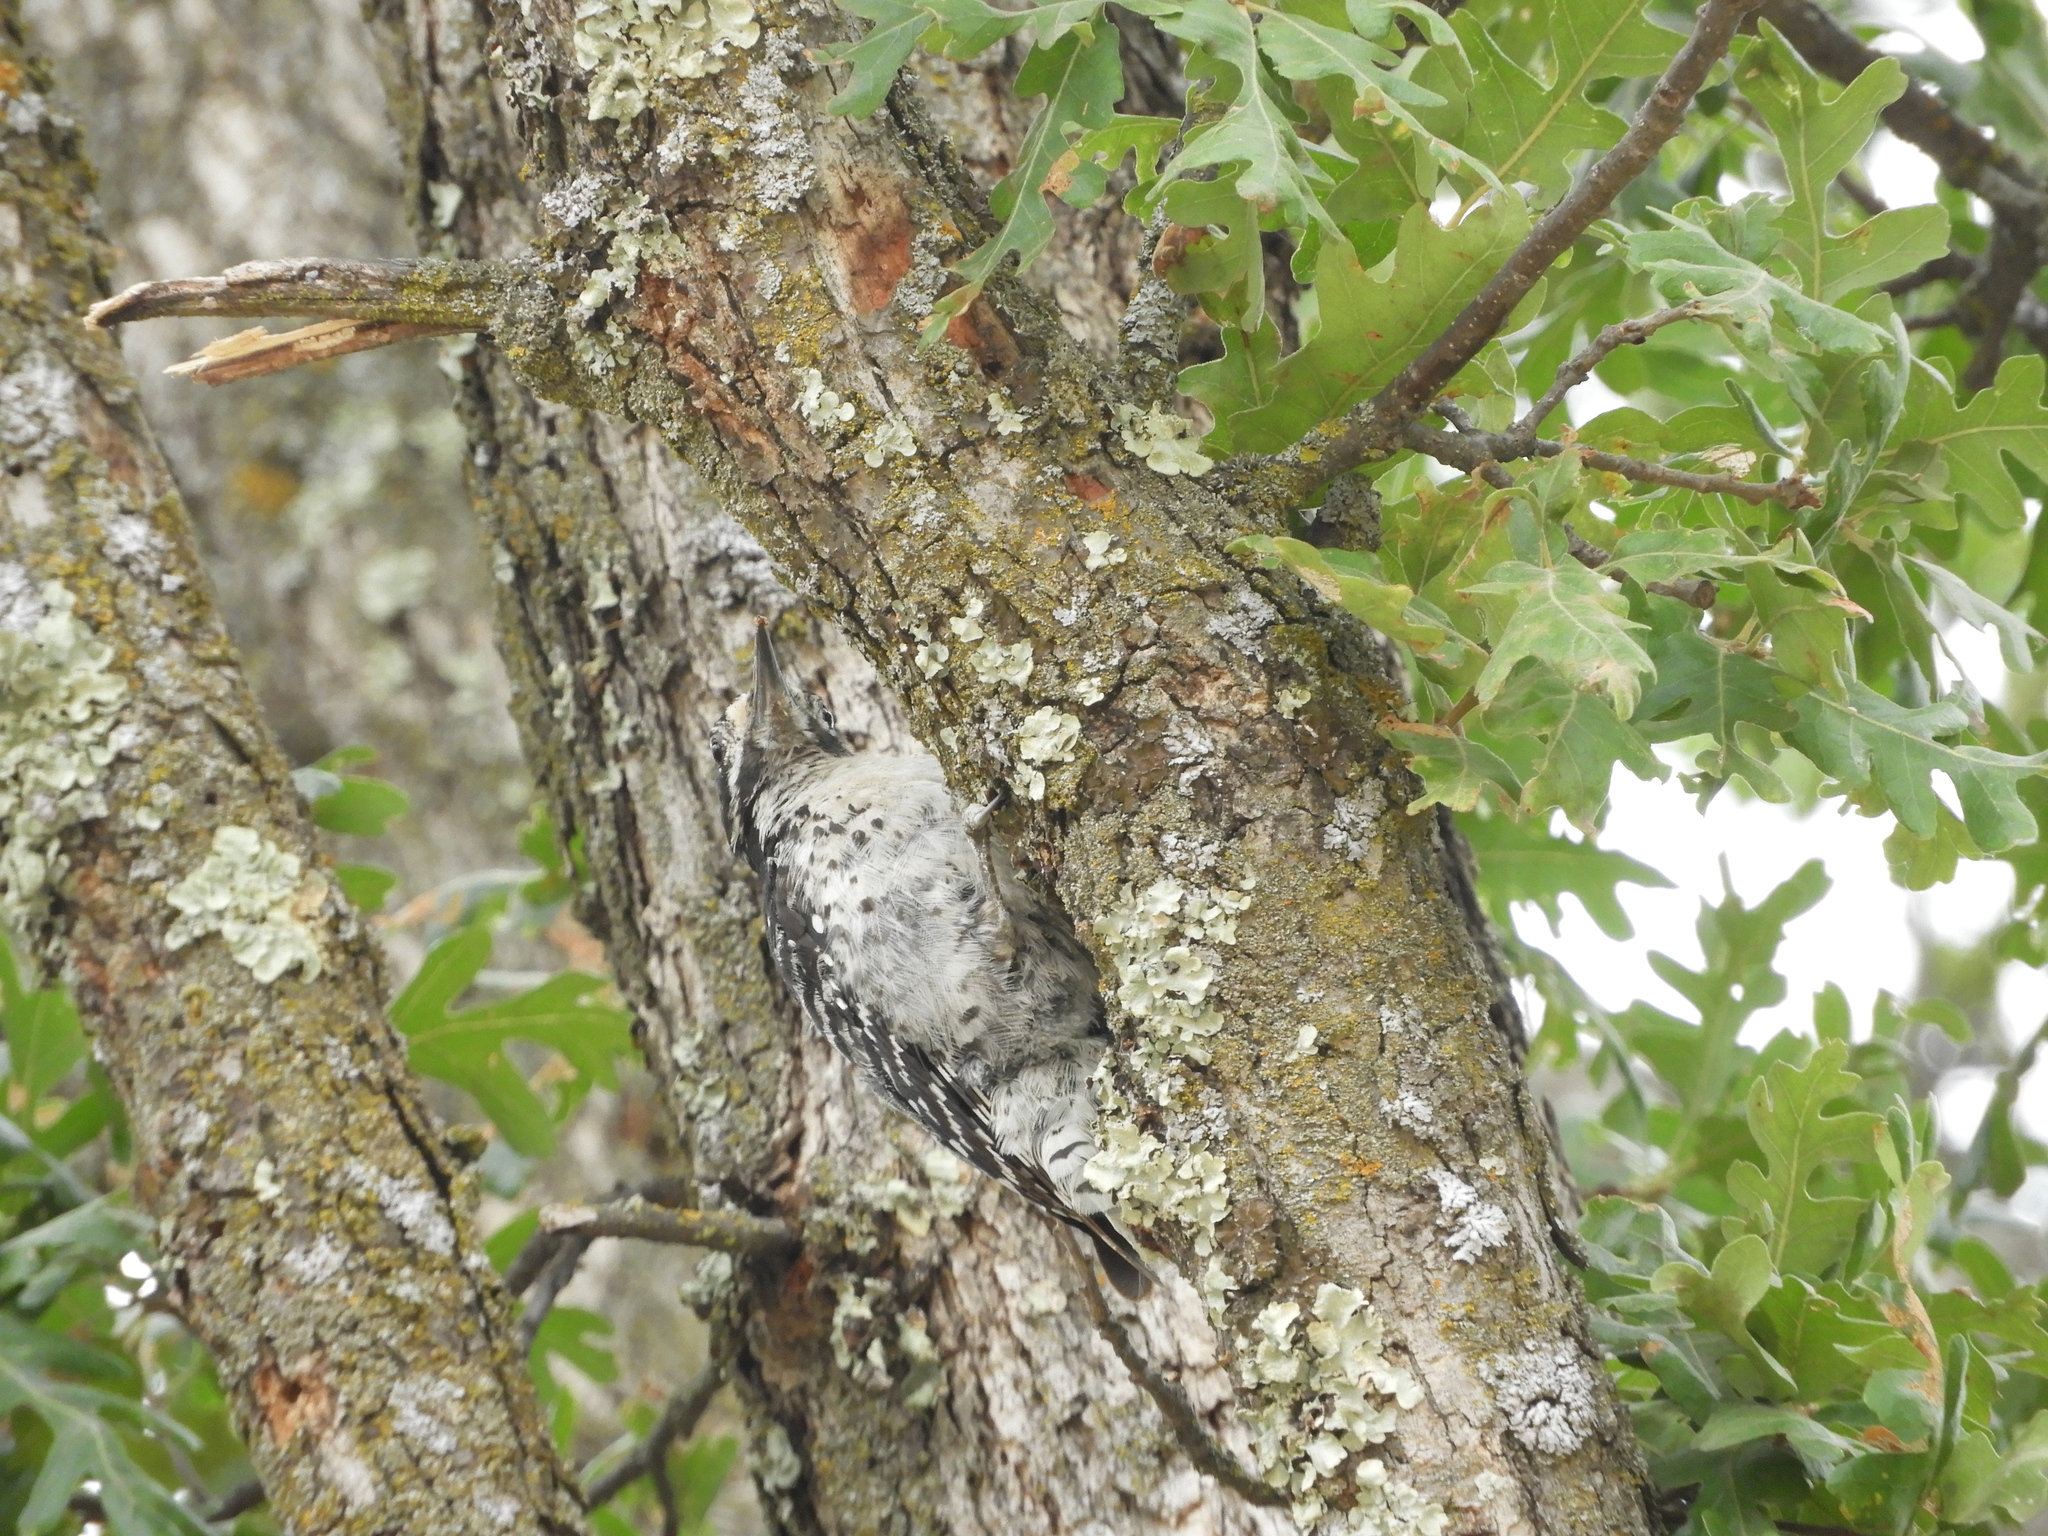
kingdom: Animalia
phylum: Chordata
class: Aves
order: Piciformes
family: Picidae
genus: Dryobates
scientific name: Dryobates nuttallii
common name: Nuttall's woodpecker
